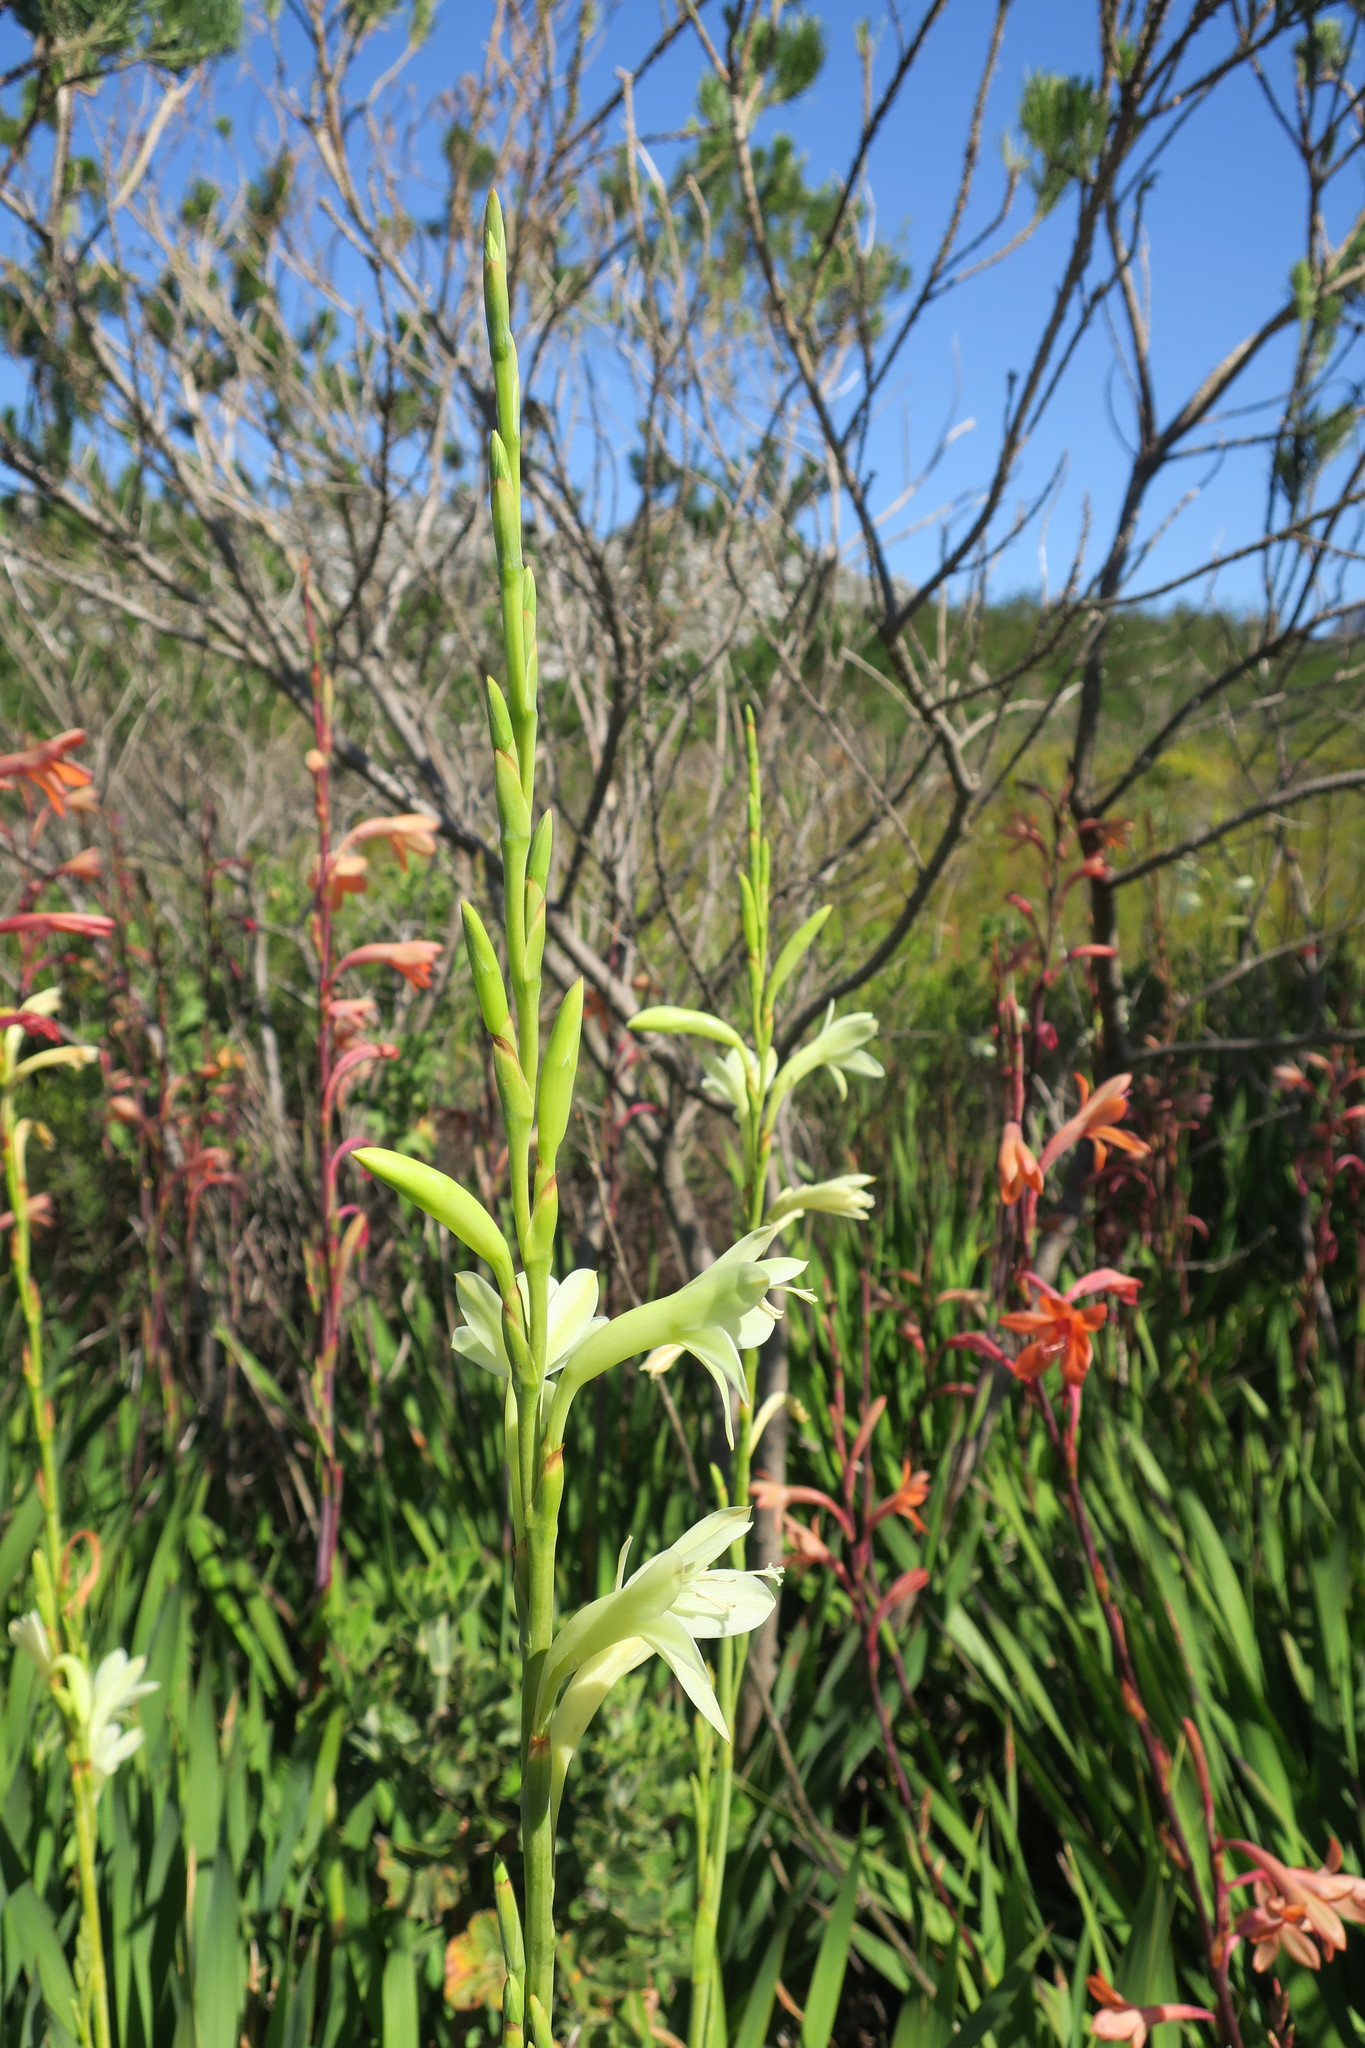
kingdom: Plantae
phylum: Tracheophyta
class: Liliopsida
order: Asparagales
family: Iridaceae
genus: Watsonia
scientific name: Watsonia meriana
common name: Bulbil bugle-lily
